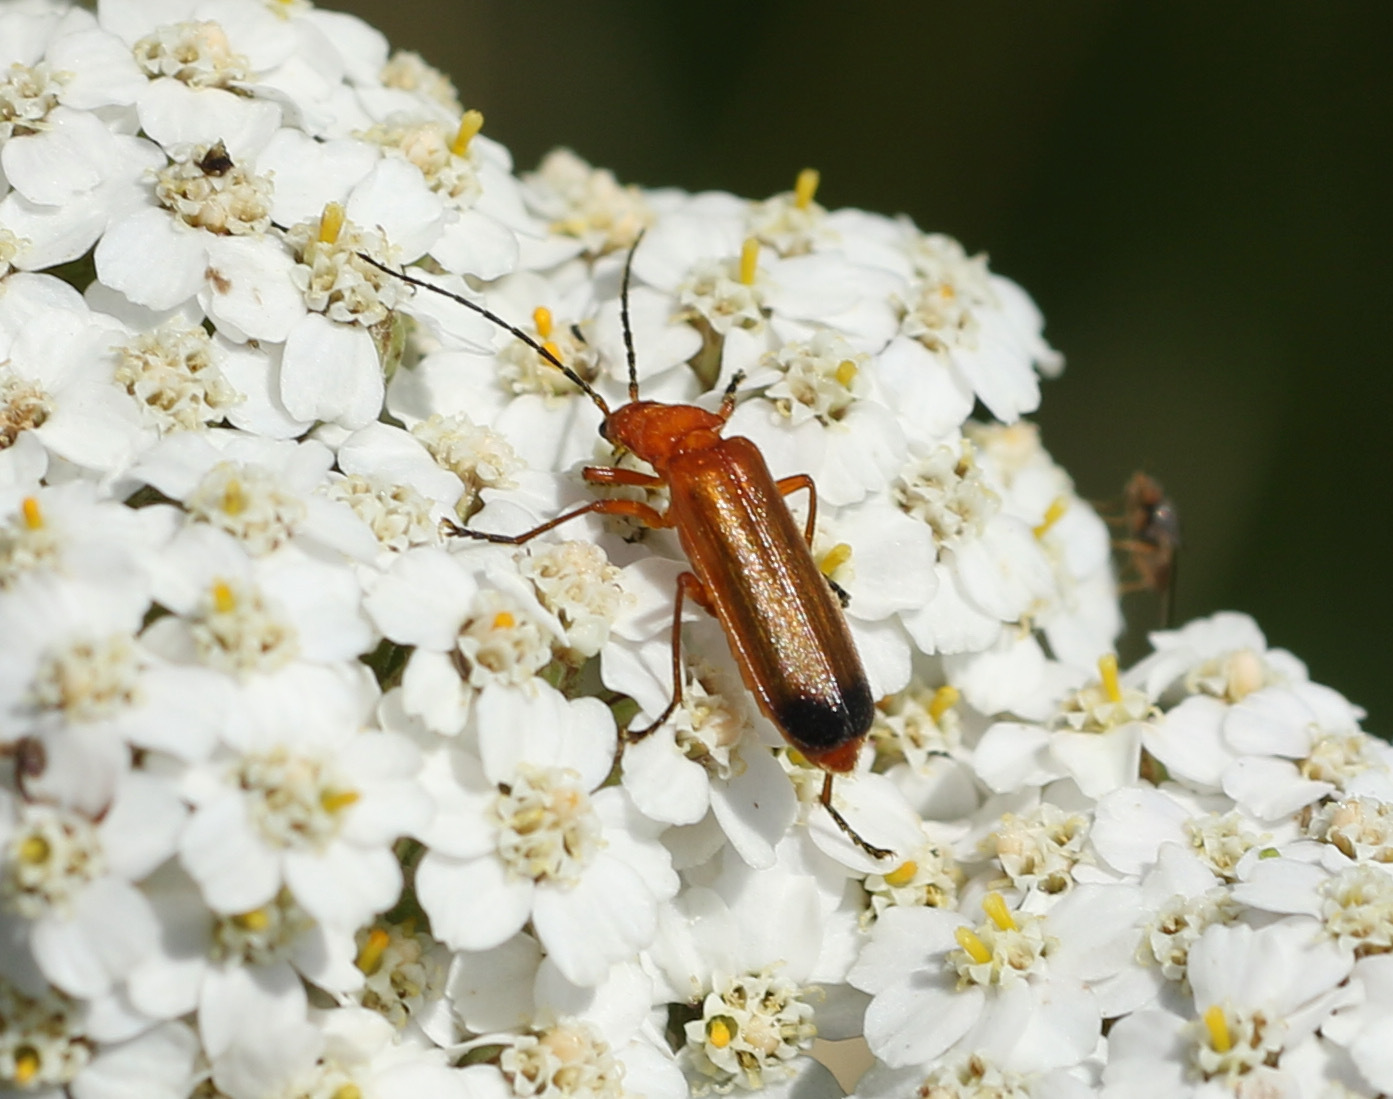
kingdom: Animalia
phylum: Arthropoda
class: Insecta
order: Coleoptera
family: Cantharidae
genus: Rhagonycha
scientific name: Rhagonycha fulva
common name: Common red soldier beetle
